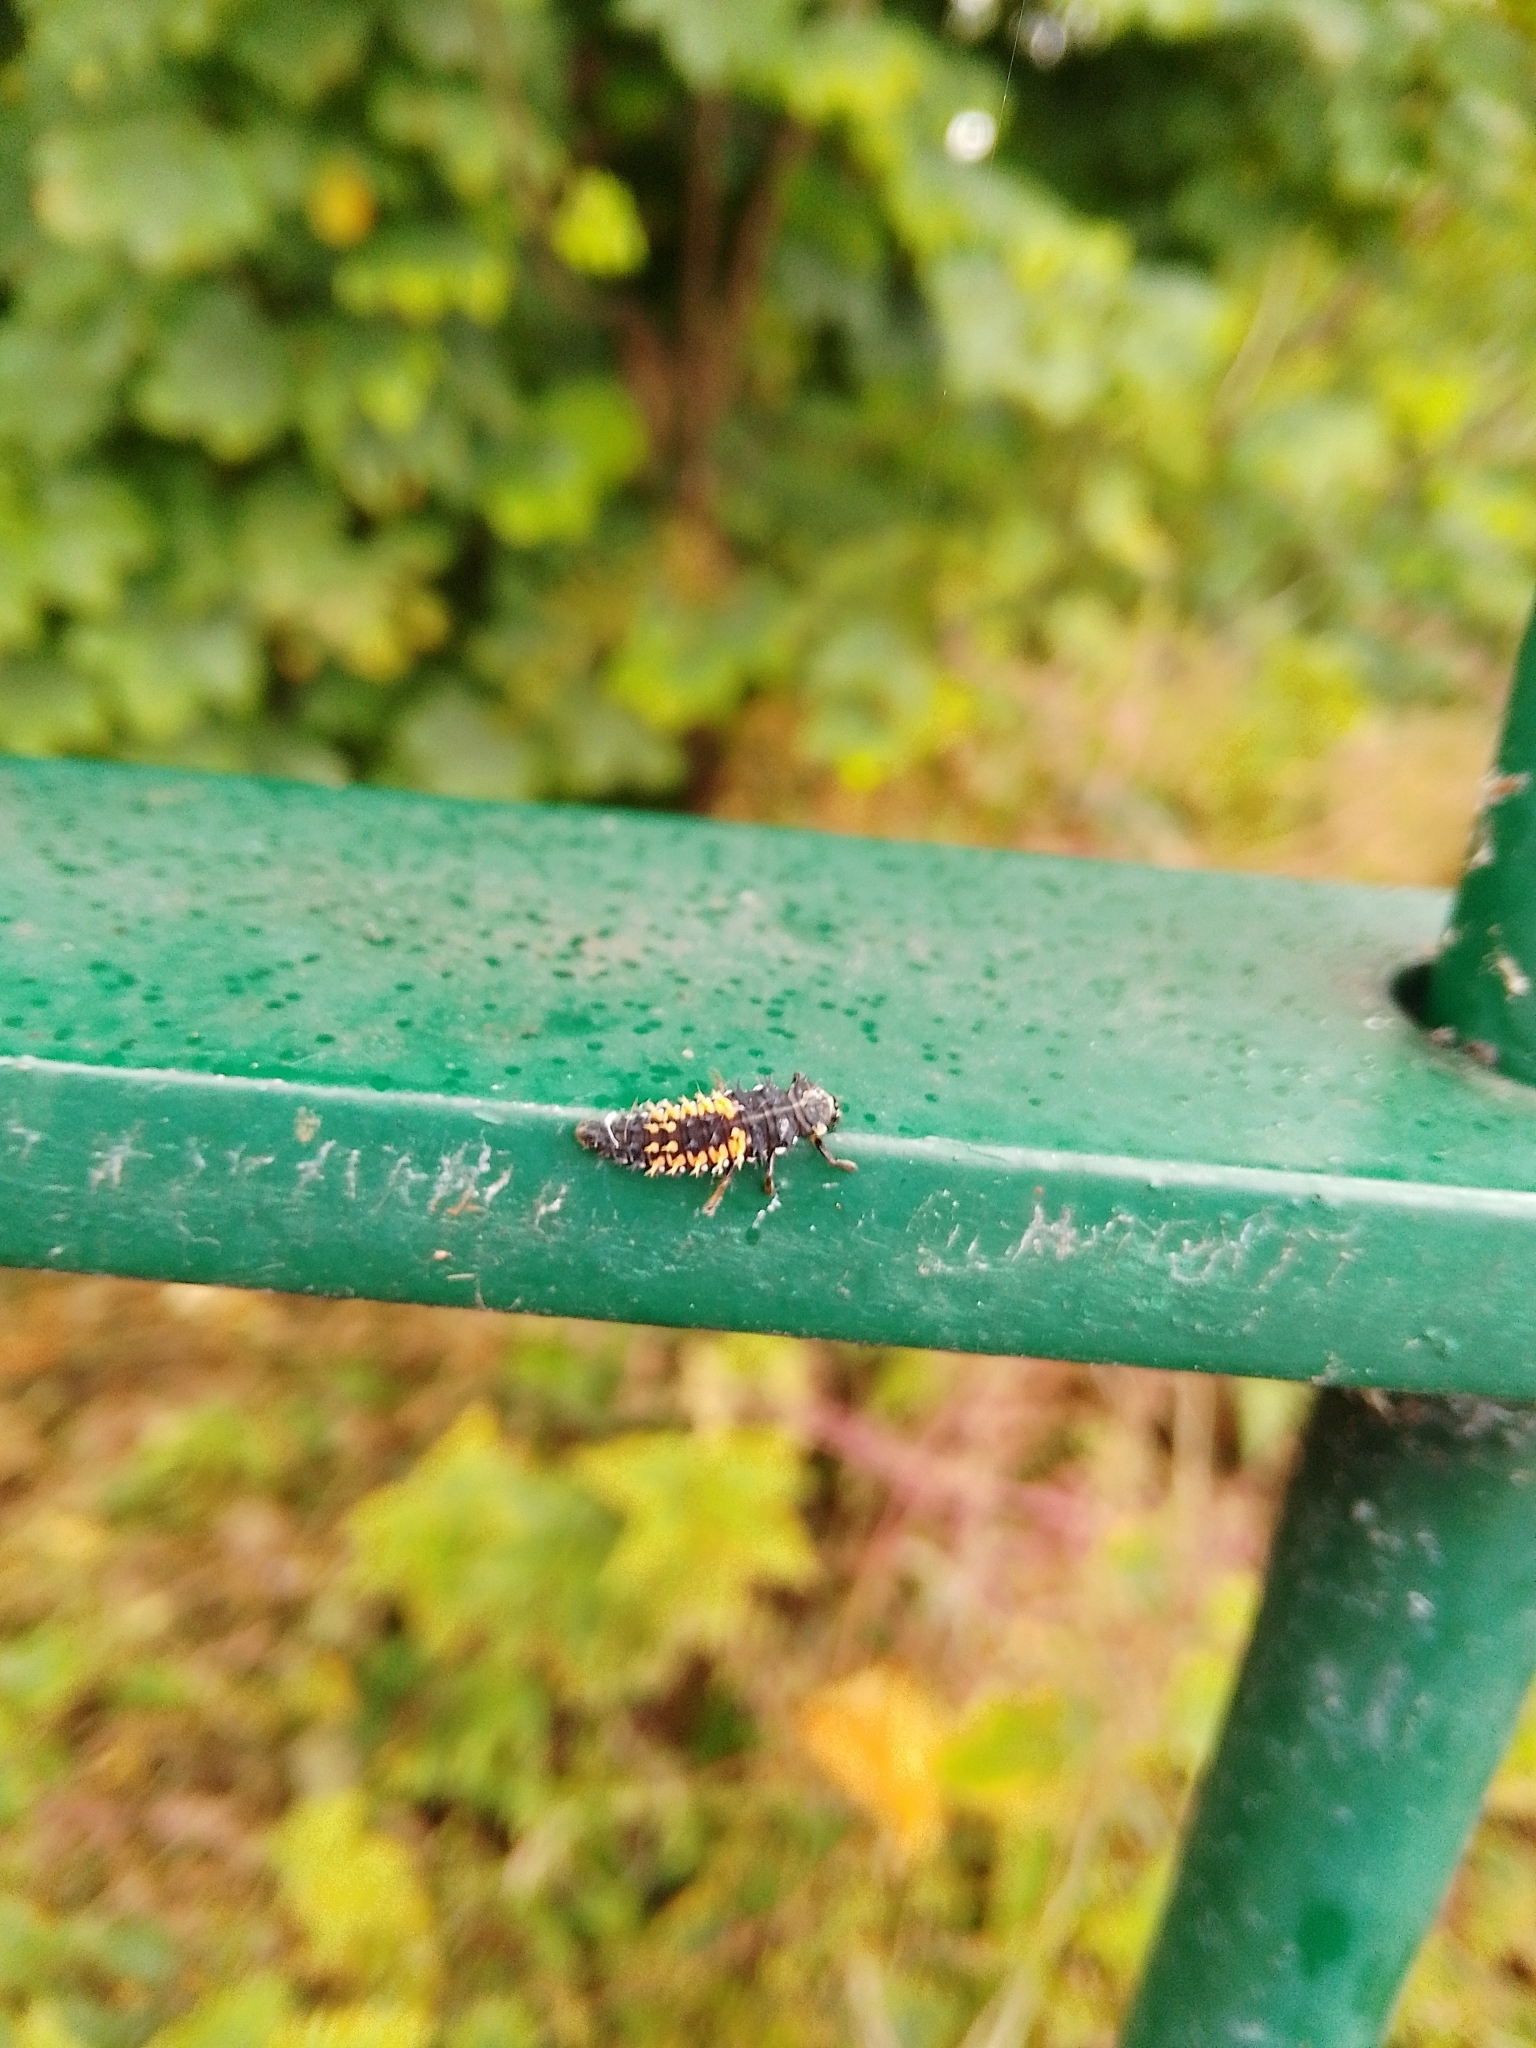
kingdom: Animalia
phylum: Arthropoda
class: Insecta
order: Coleoptera
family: Coccinellidae
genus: Harmonia
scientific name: Harmonia axyridis
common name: Harlequin ladybird
